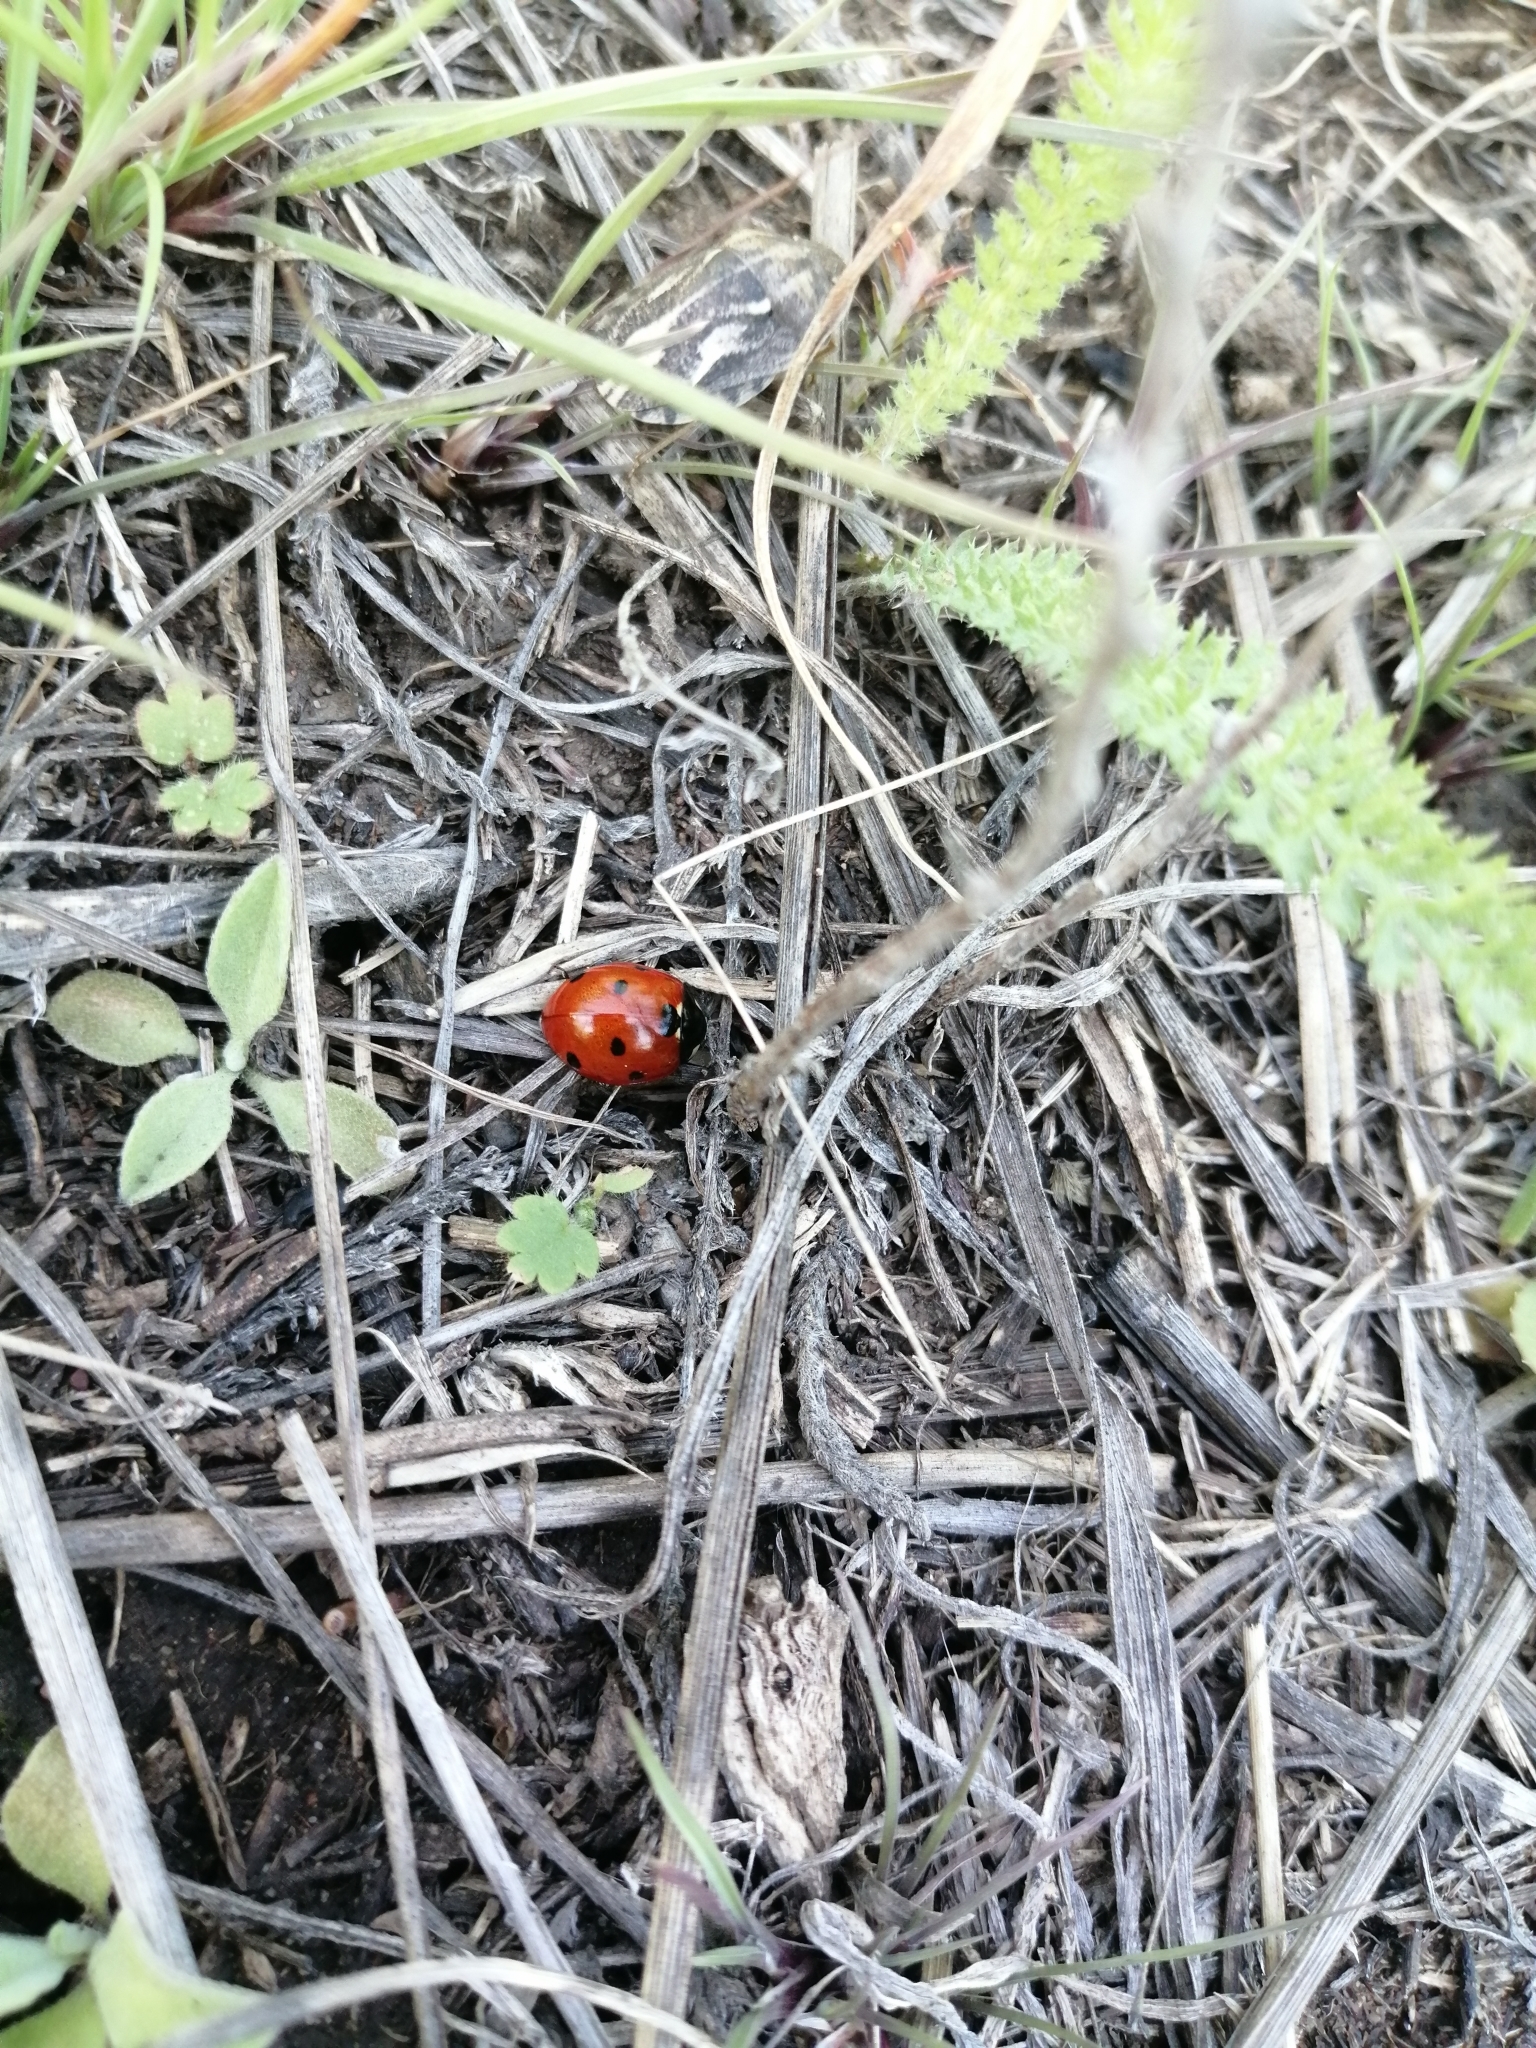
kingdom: Animalia
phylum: Arthropoda
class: Insecta
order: Coleoptera
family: Coccinellidae
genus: Coccinella
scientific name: Coccinella septempunctata
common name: Sevenspotted lady beetle
